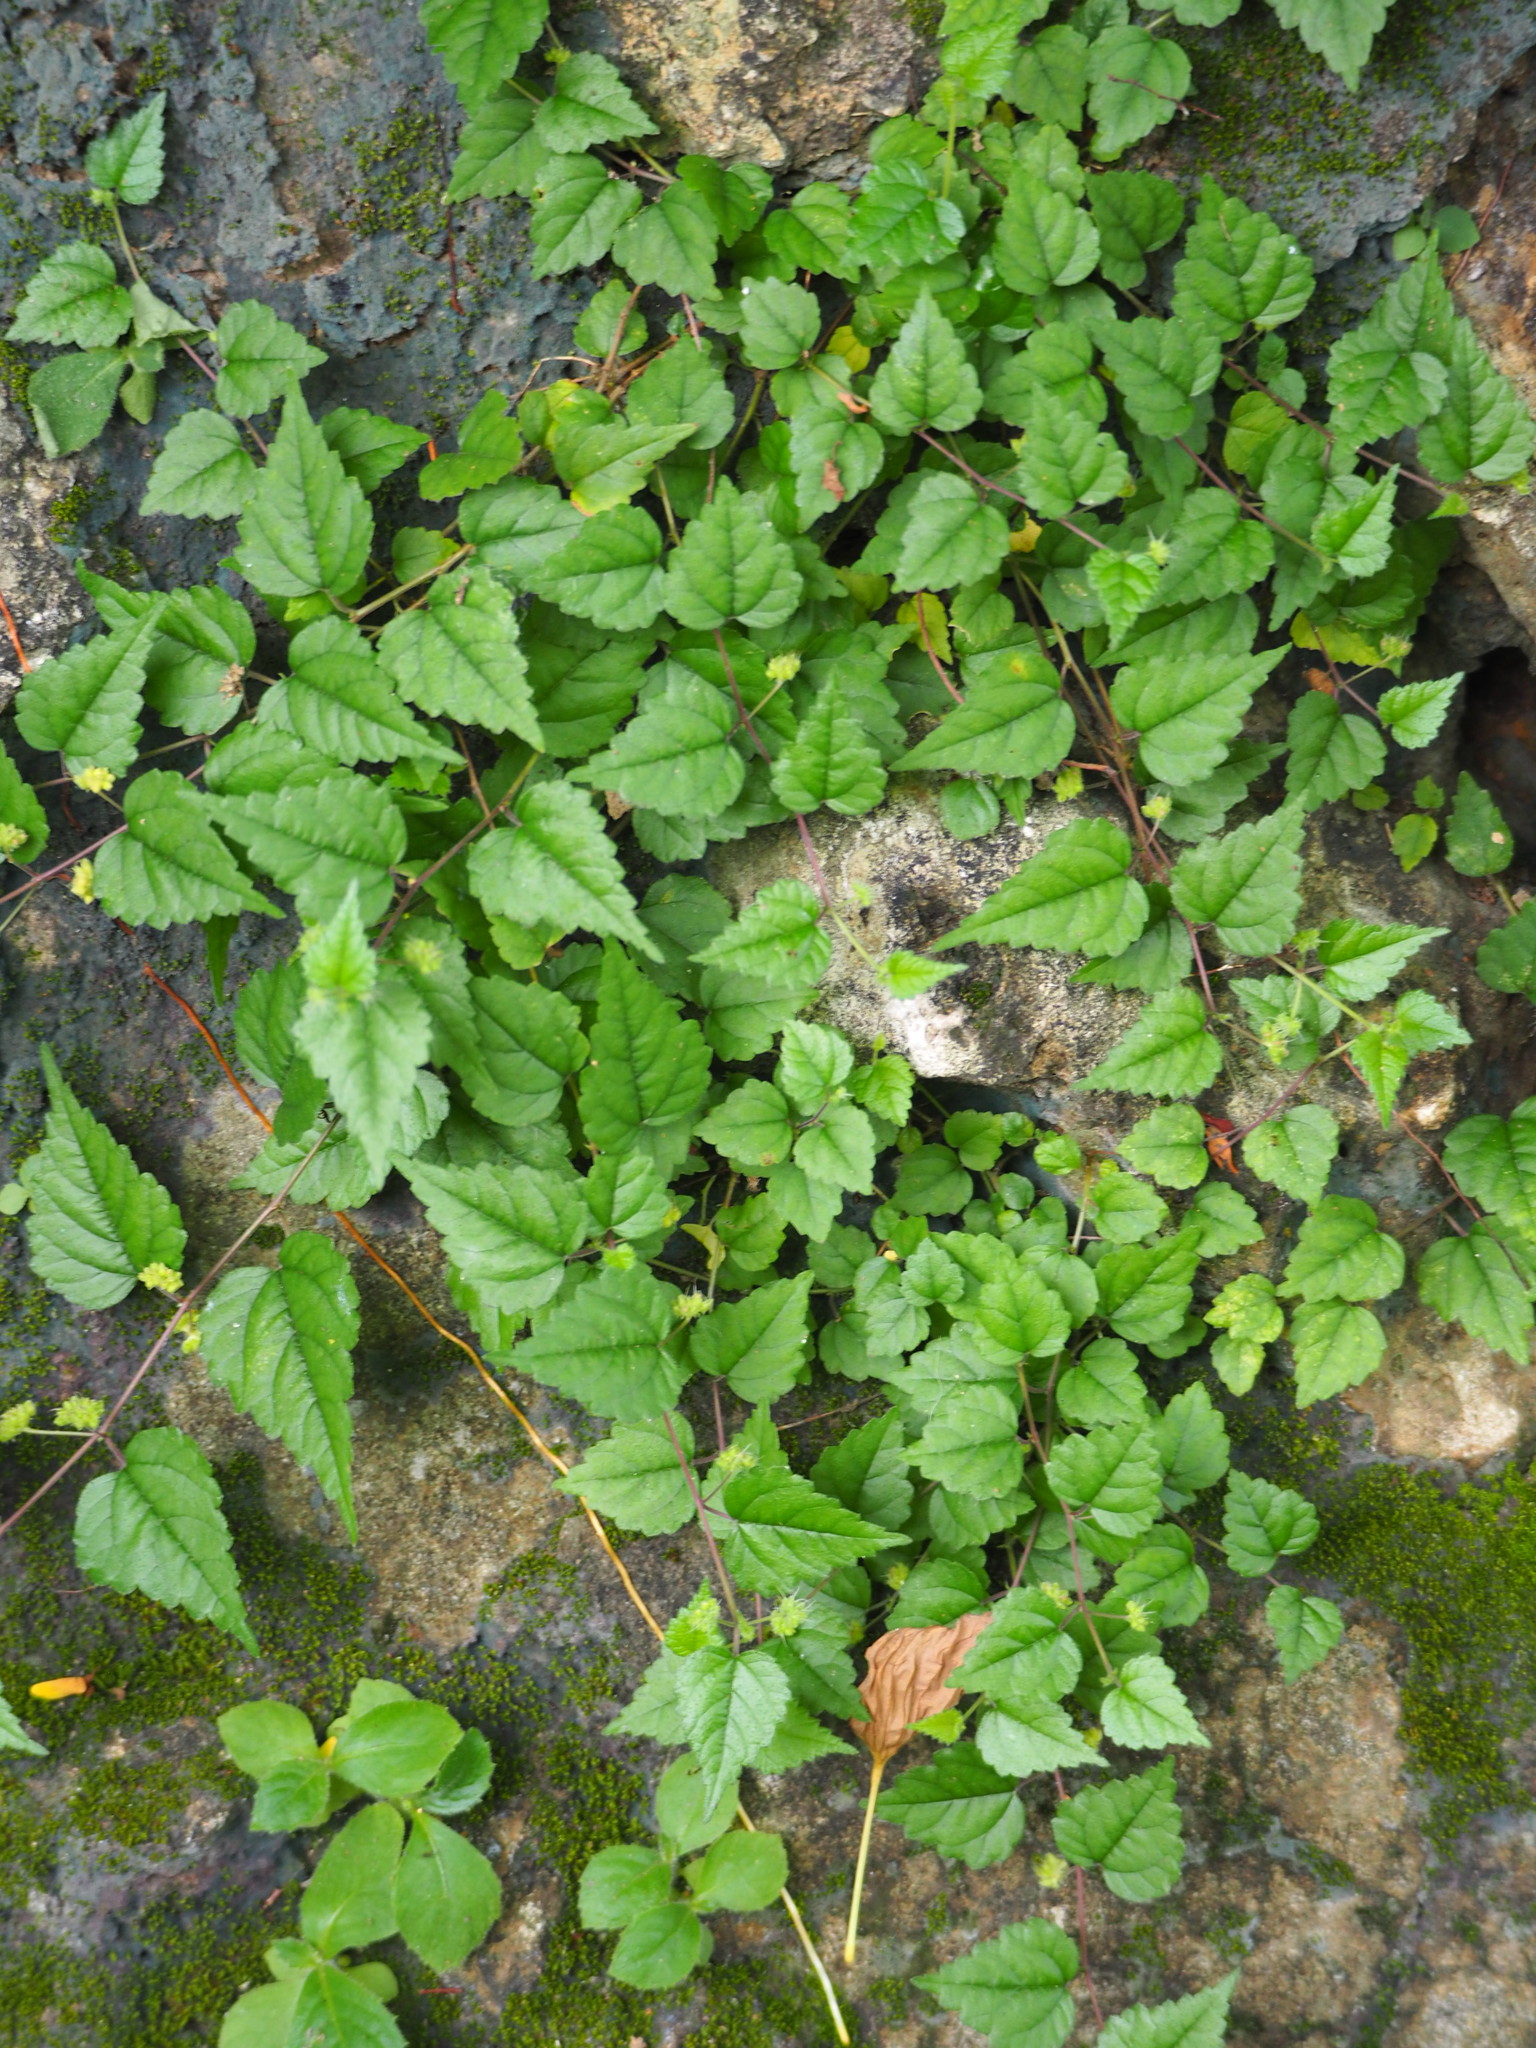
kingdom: Plantae
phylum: Tracheophyta
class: Magnoliopsida
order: Rosales
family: Moraceae
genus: Fatoua
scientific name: Fatoua villosa
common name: Hairy crabweed
